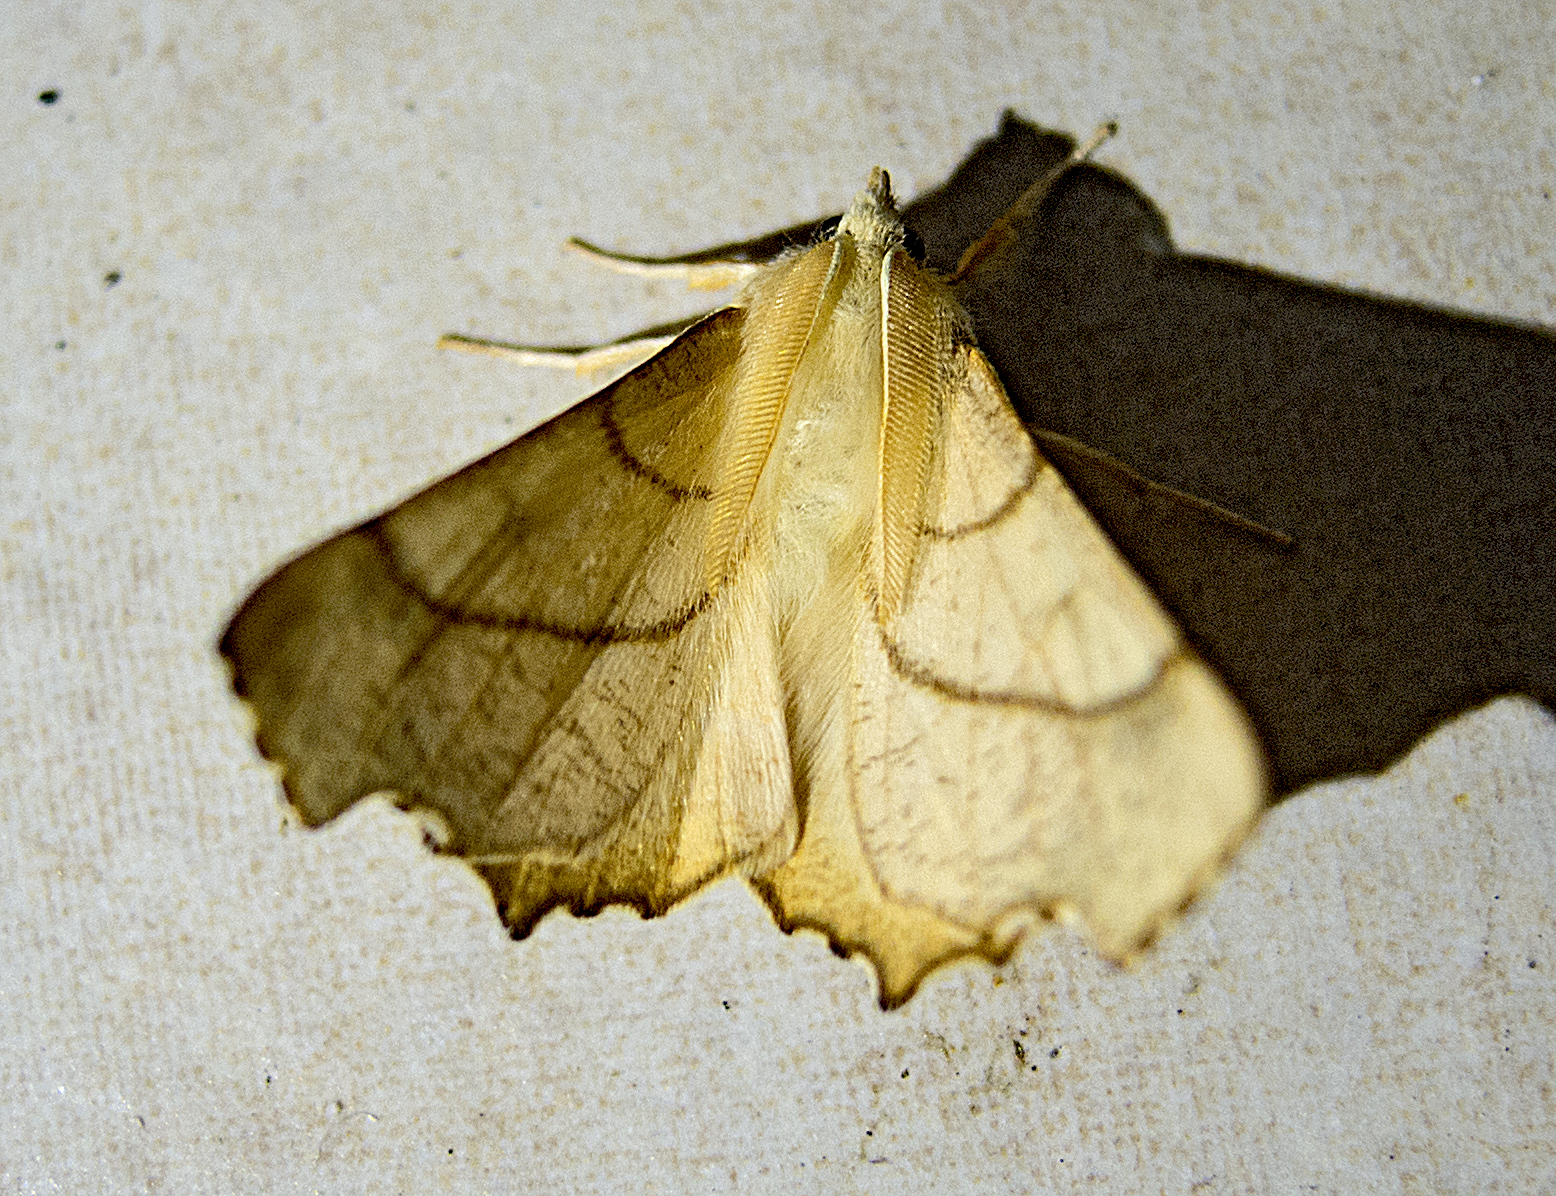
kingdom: Animalia
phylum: Arthropoda
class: Insecta
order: Lepidoptera
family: Geometridae
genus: Ennomos
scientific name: Ennomos erosaria
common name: September thorn
